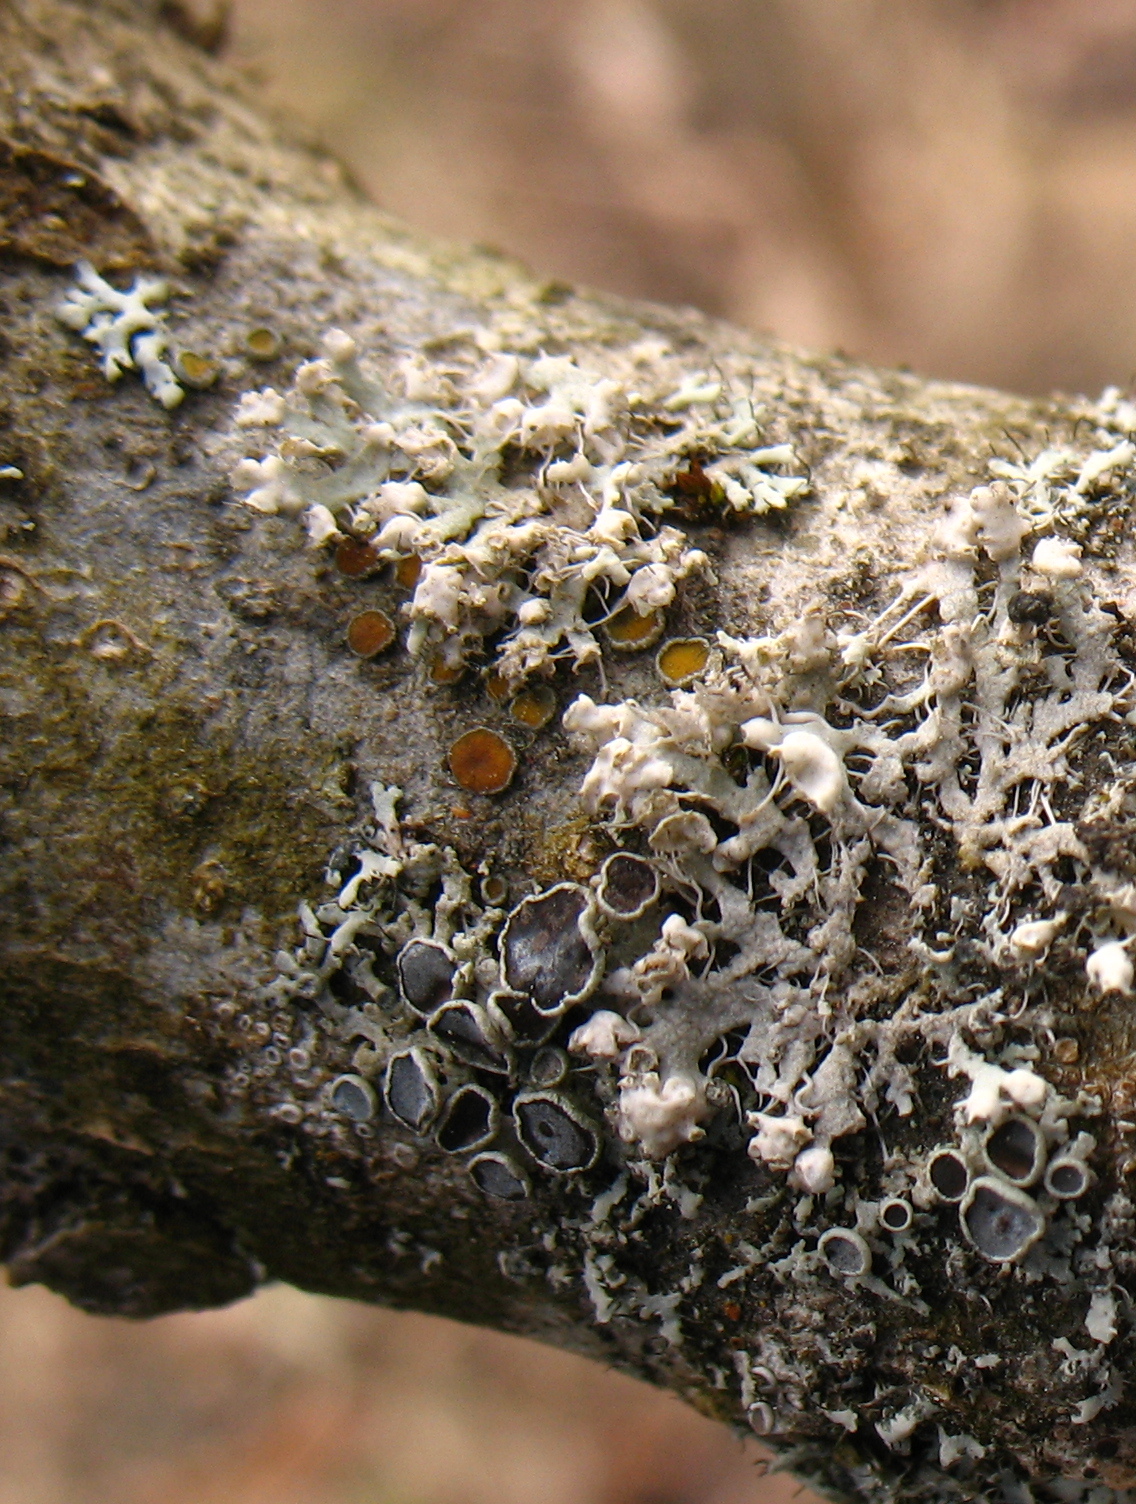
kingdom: Fungi
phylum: Ascomycota
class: Lecanoromycetes
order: Caliciales
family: Physciaceae
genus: Physcia
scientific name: Physcia adscendens
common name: Hooded rosette lichen
